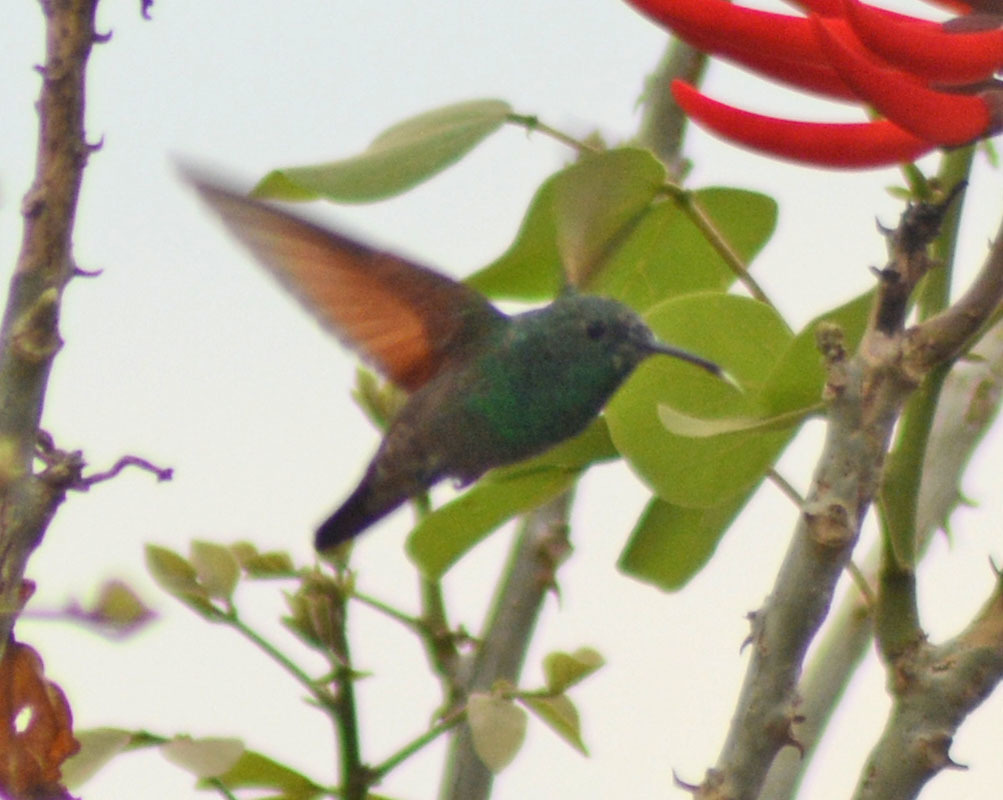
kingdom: Animalia
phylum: Chordata
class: Aves
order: Apodiformes
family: Trochilidae
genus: Saucerottia
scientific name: Saucerottia beryllina
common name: Berylline hummingbird
